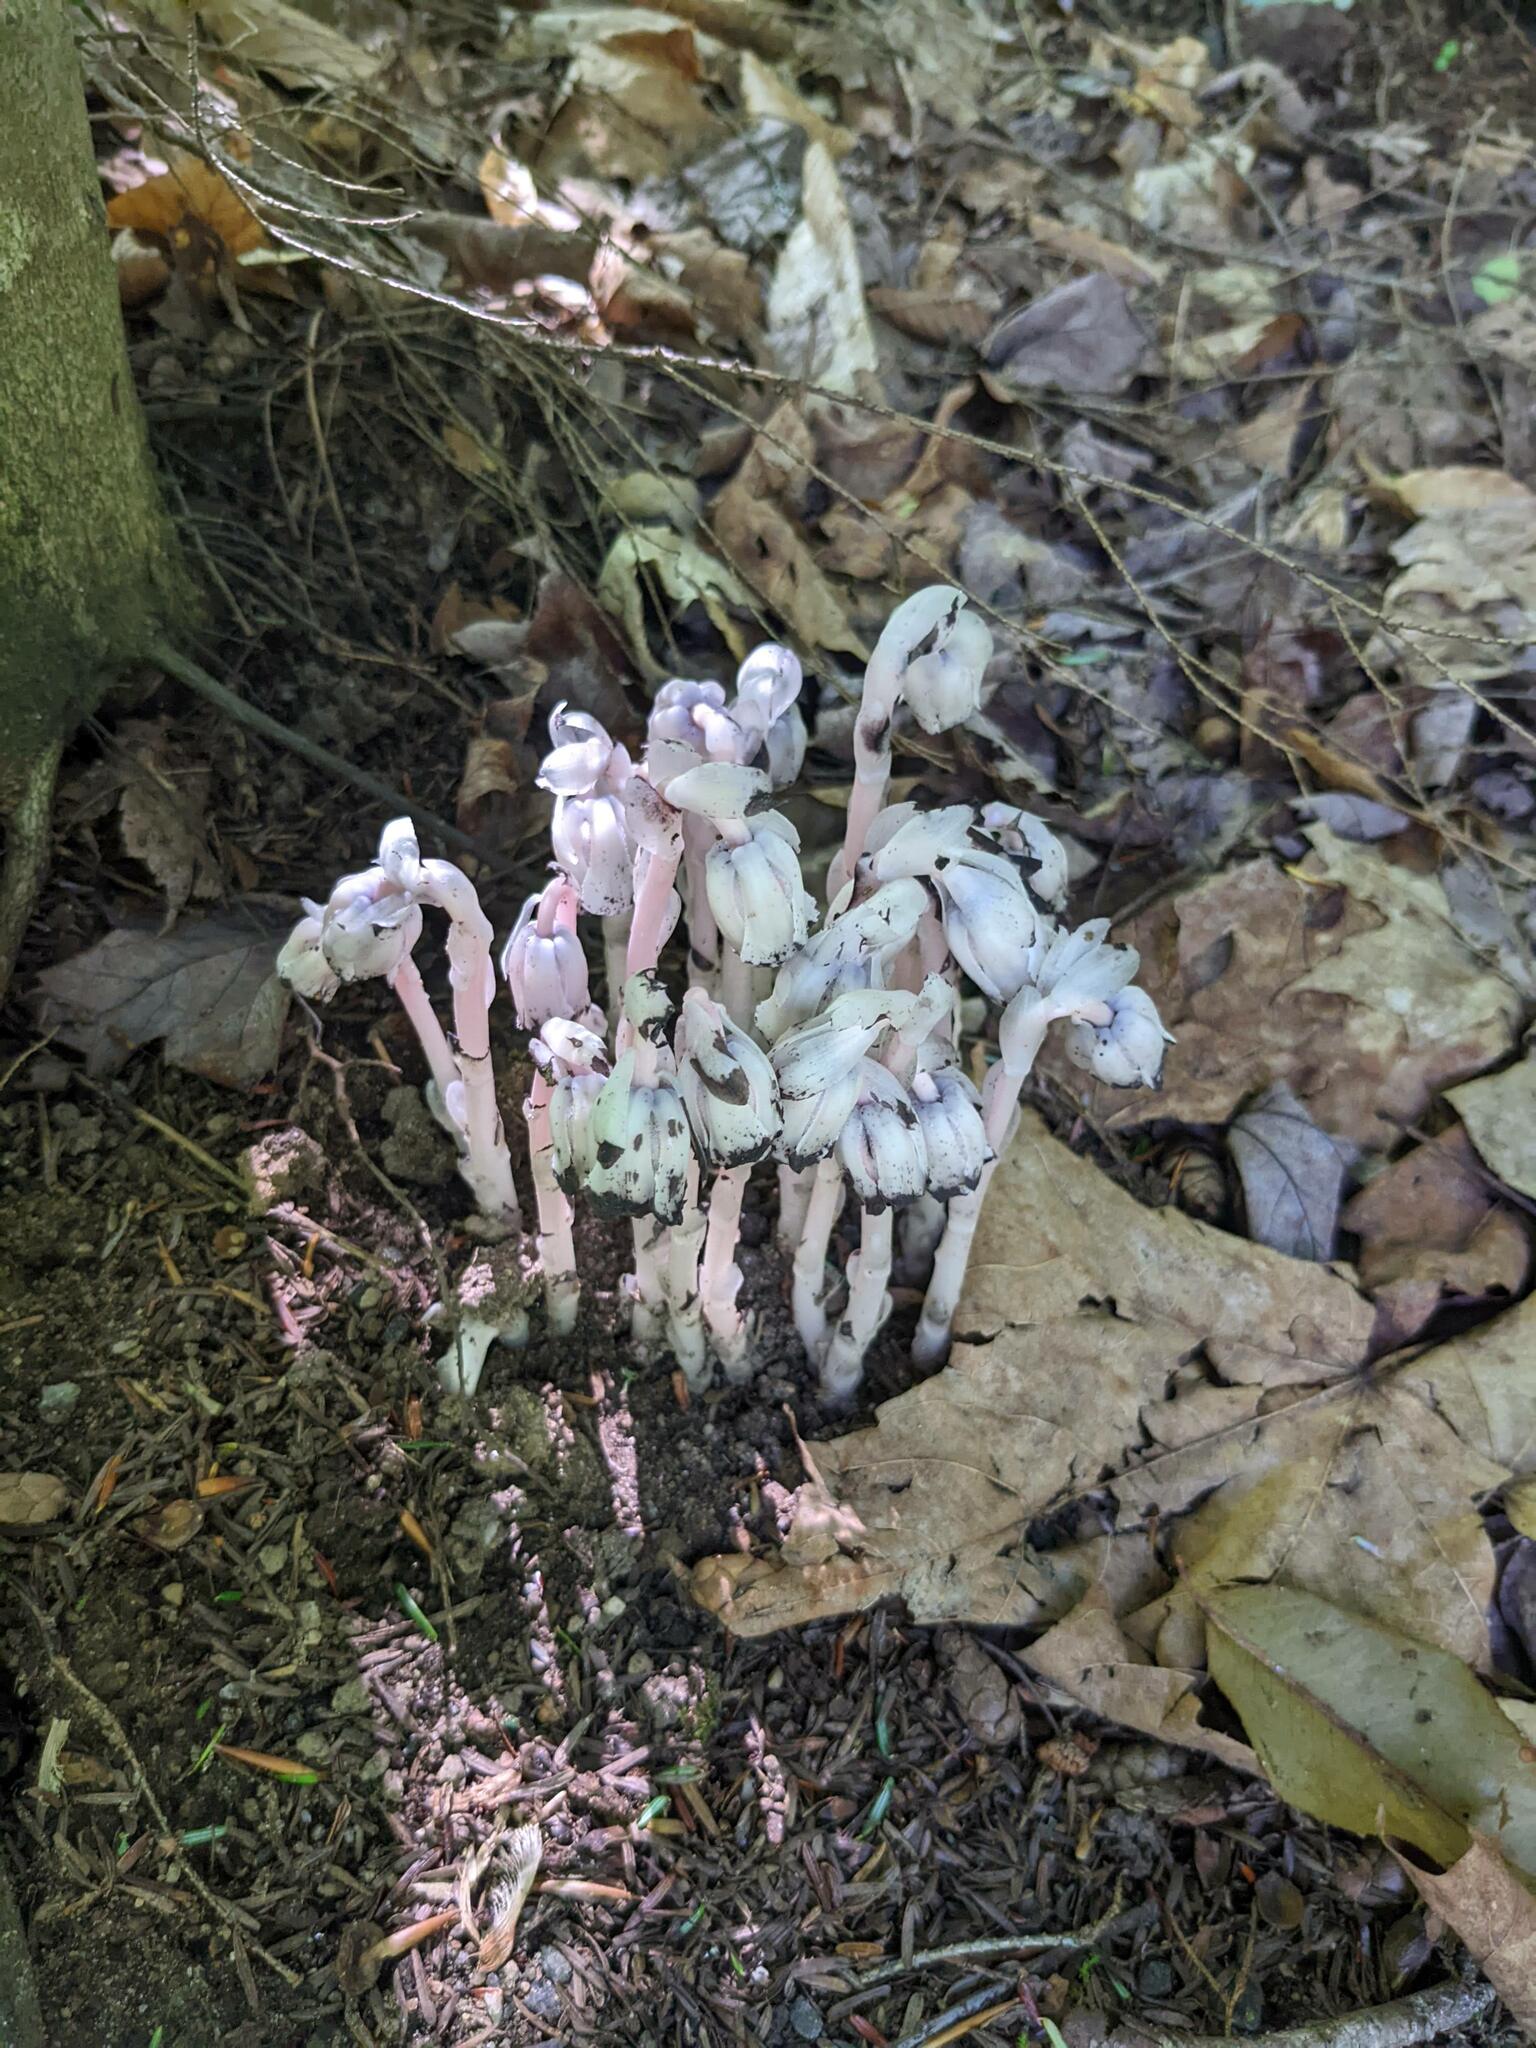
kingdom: Plantae
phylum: Tracheophyta
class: Magnoliopsida
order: Ericales
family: Ericaceae
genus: Monotropa
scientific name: Monotropa uniflora
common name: Convulsion root
